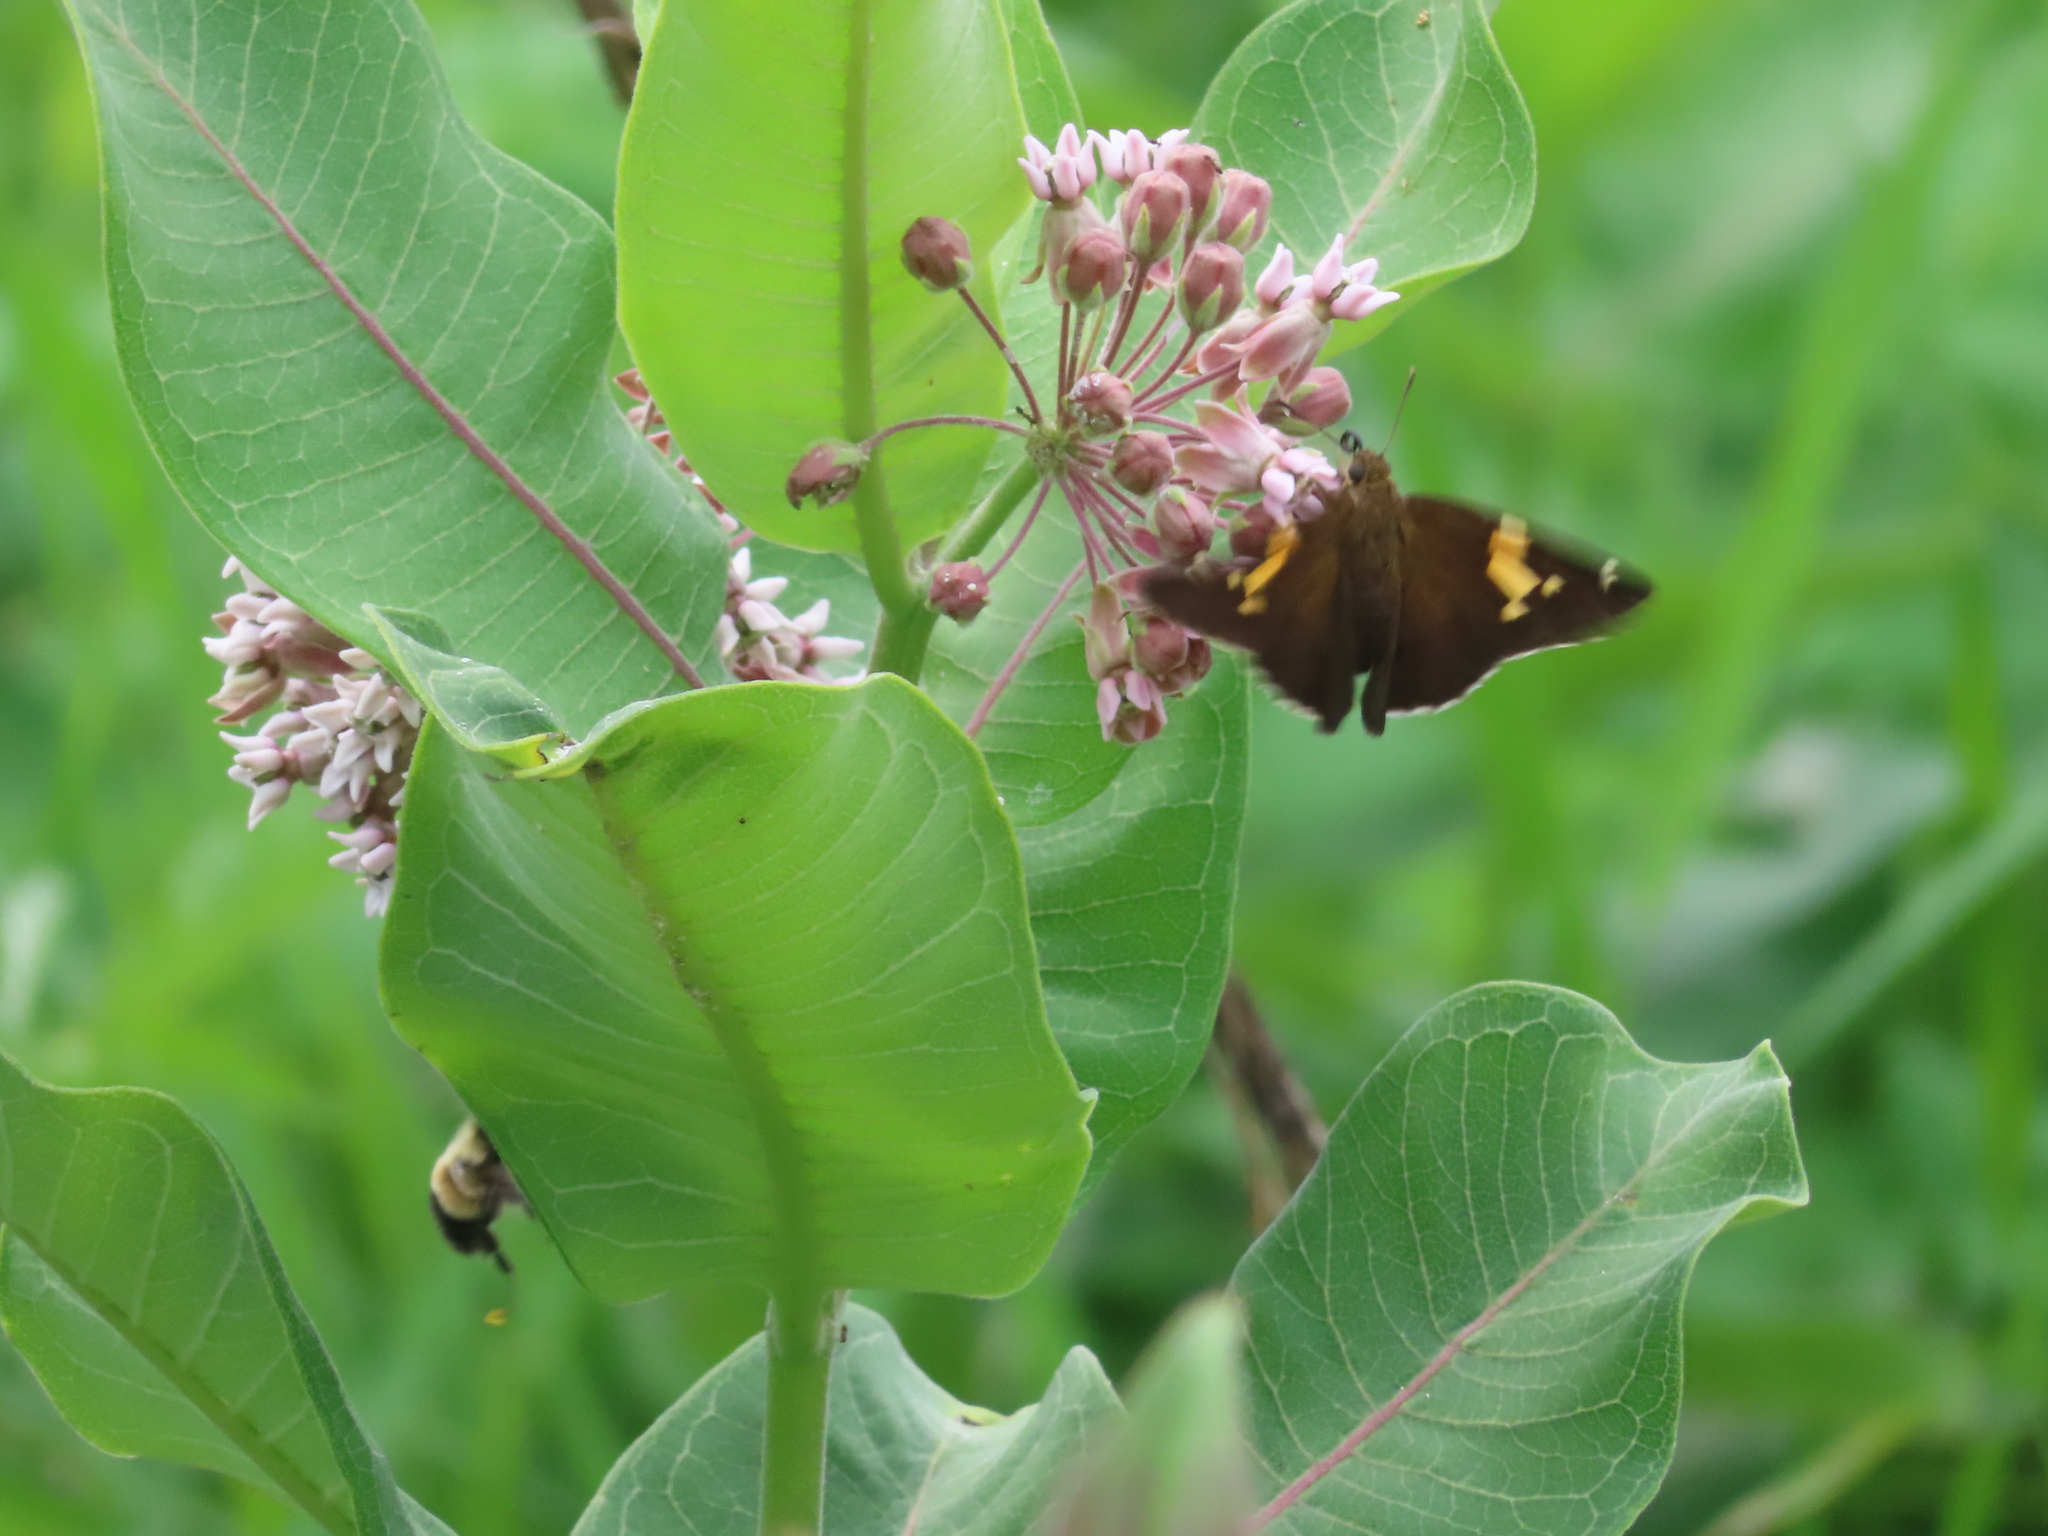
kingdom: Animalia
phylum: Arthropoda
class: Insecta
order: Lepidoptera
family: Hesperiidae
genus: Epargyreus
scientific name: Epargyreus clarus
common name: Silver-spotted skipper
